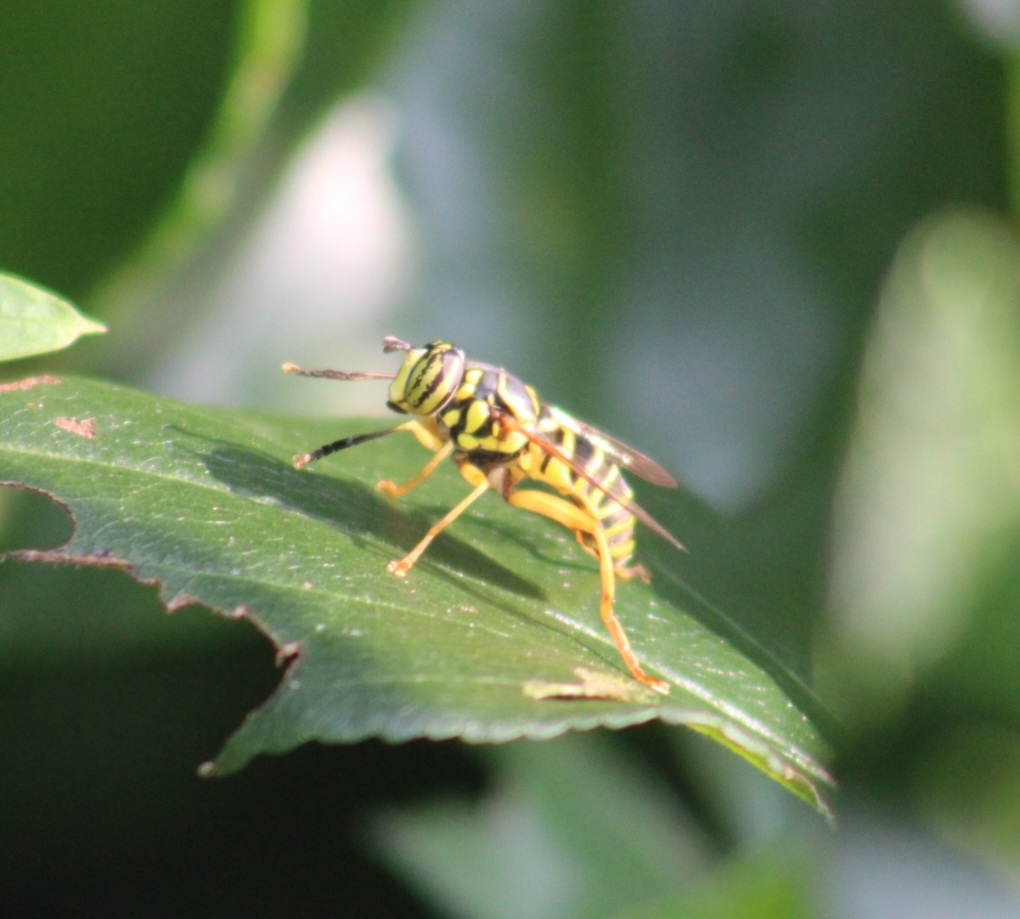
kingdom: Animalia
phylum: Arthropoda
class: Insecta
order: Diptera
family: Syrphidae
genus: Spilomyia
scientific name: Spilomyia longicornis
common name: Eastern hornet fly
